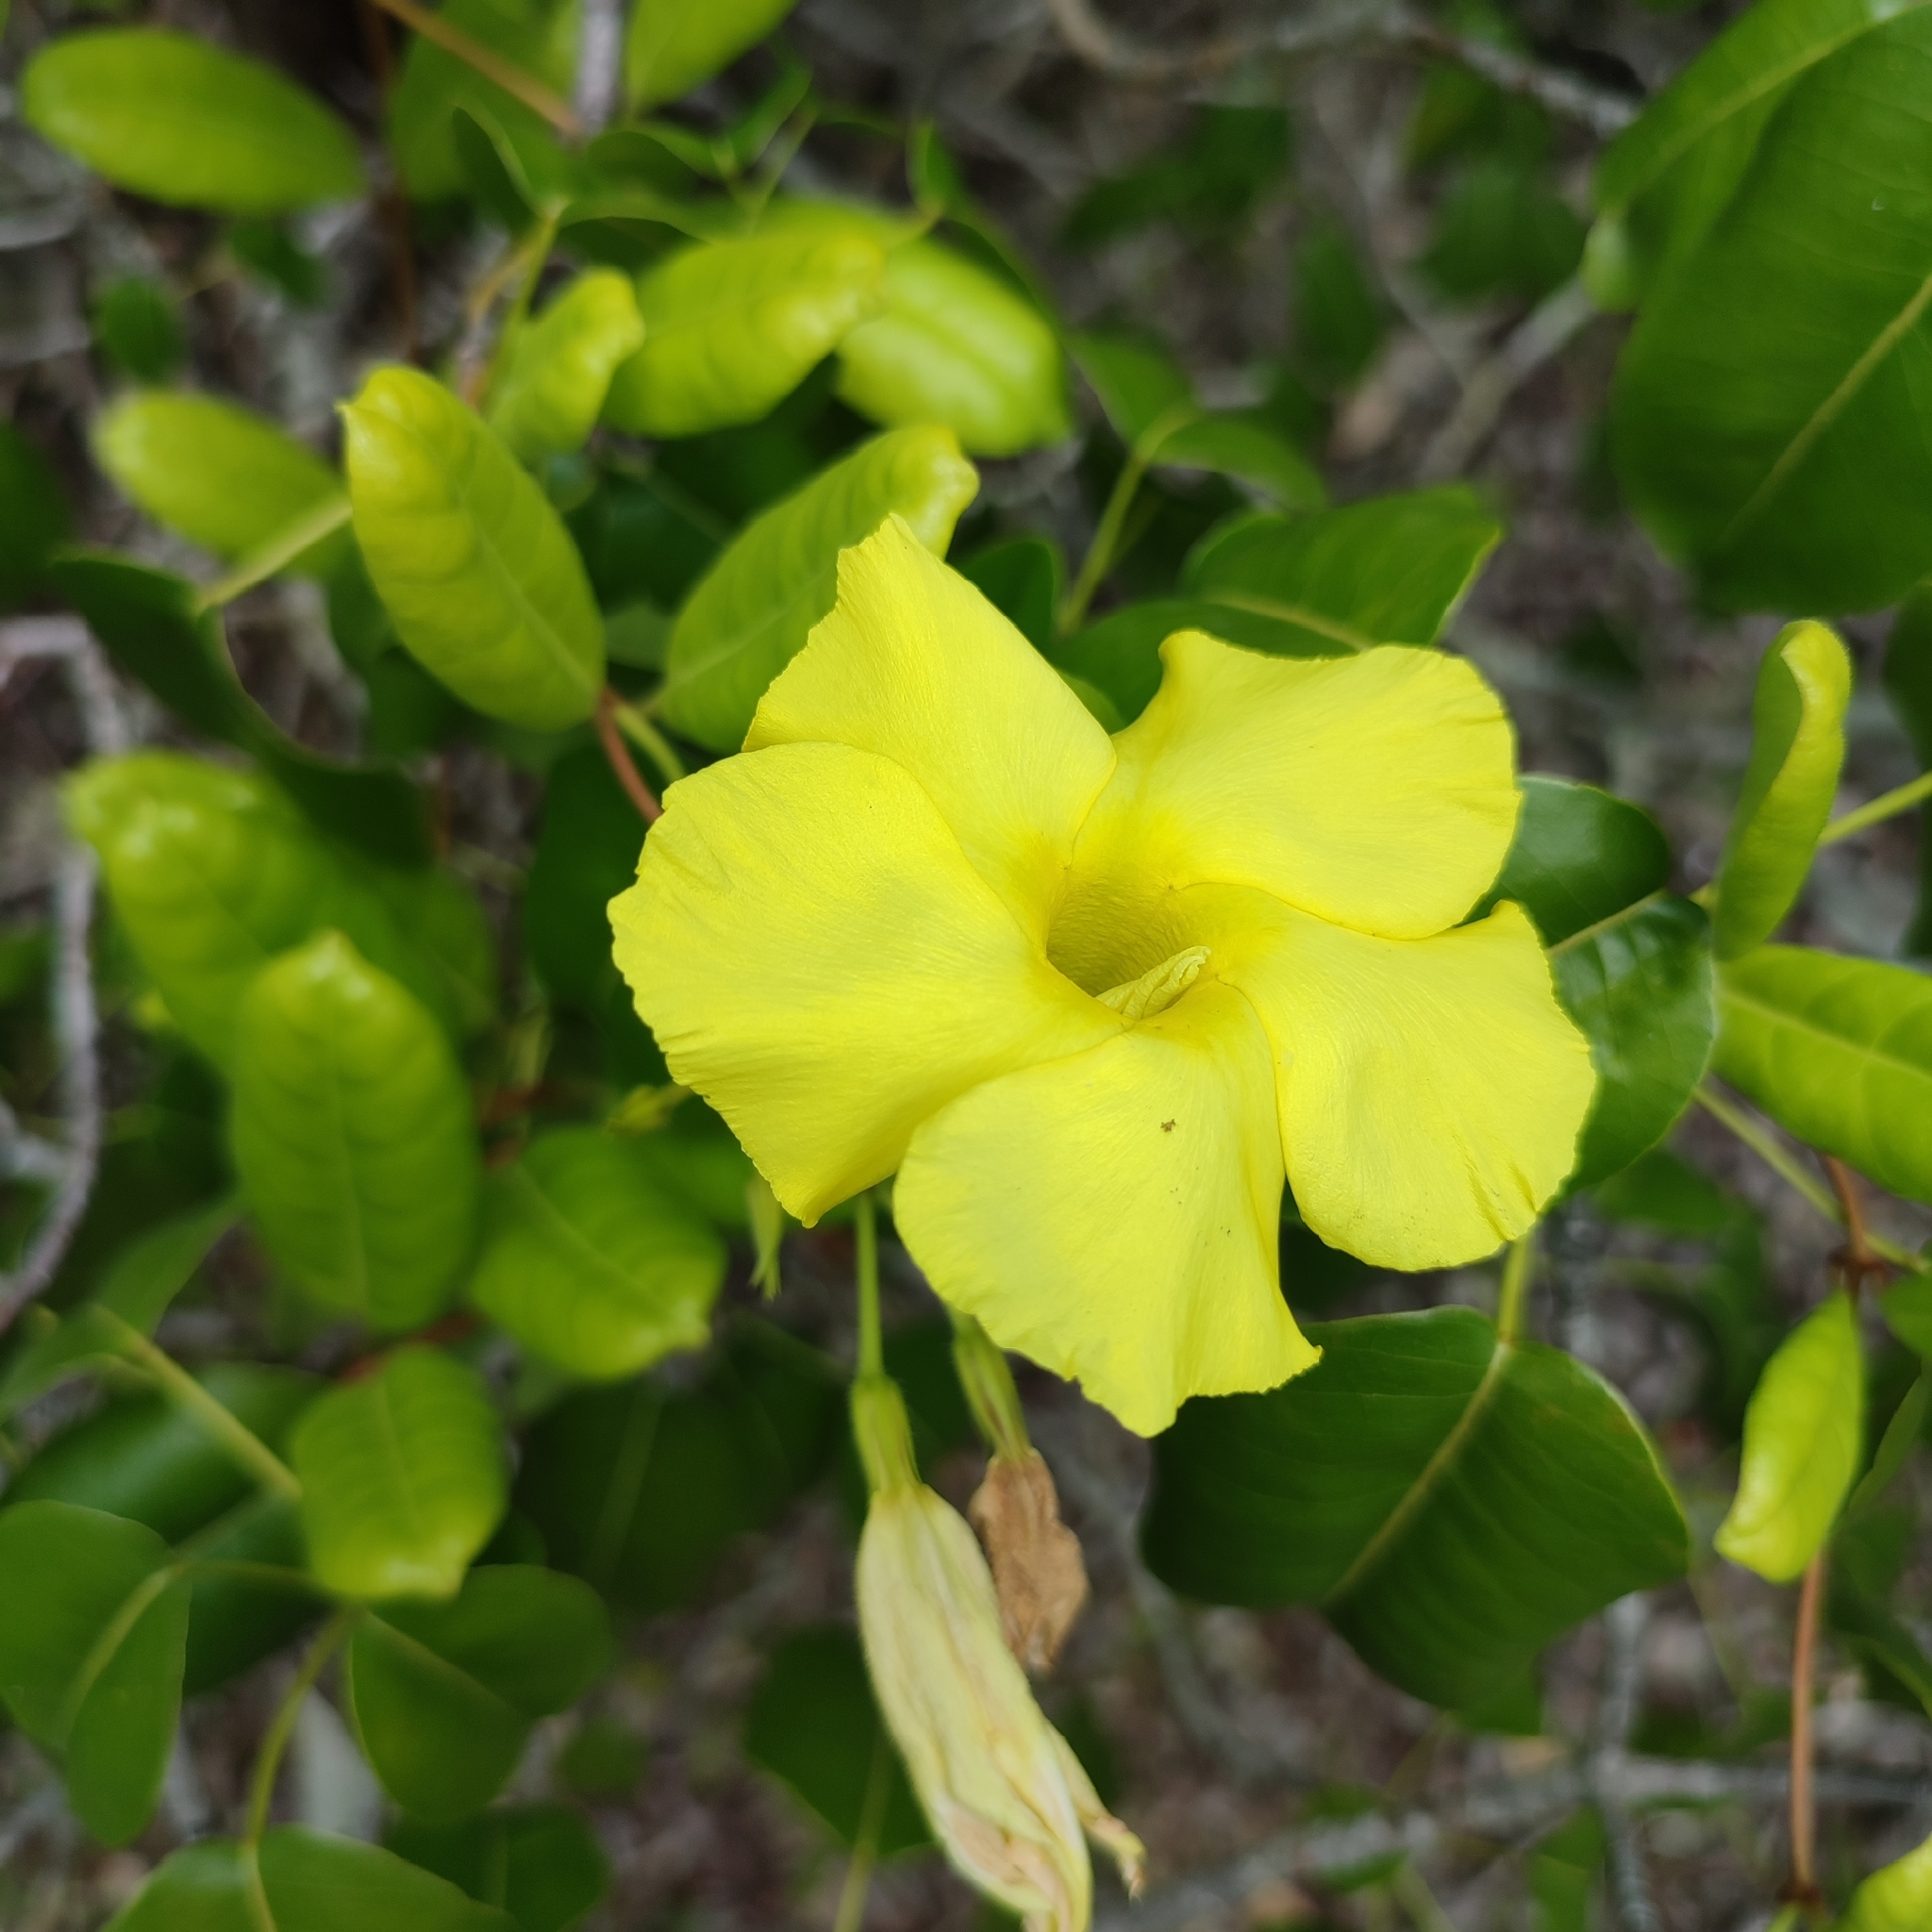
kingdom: Plantae
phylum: Tracheophyta
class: Magnoliopsida
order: Gentianales
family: Apocynaceae
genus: Pentalinon
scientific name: Pentalinon luteum
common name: Licebush
